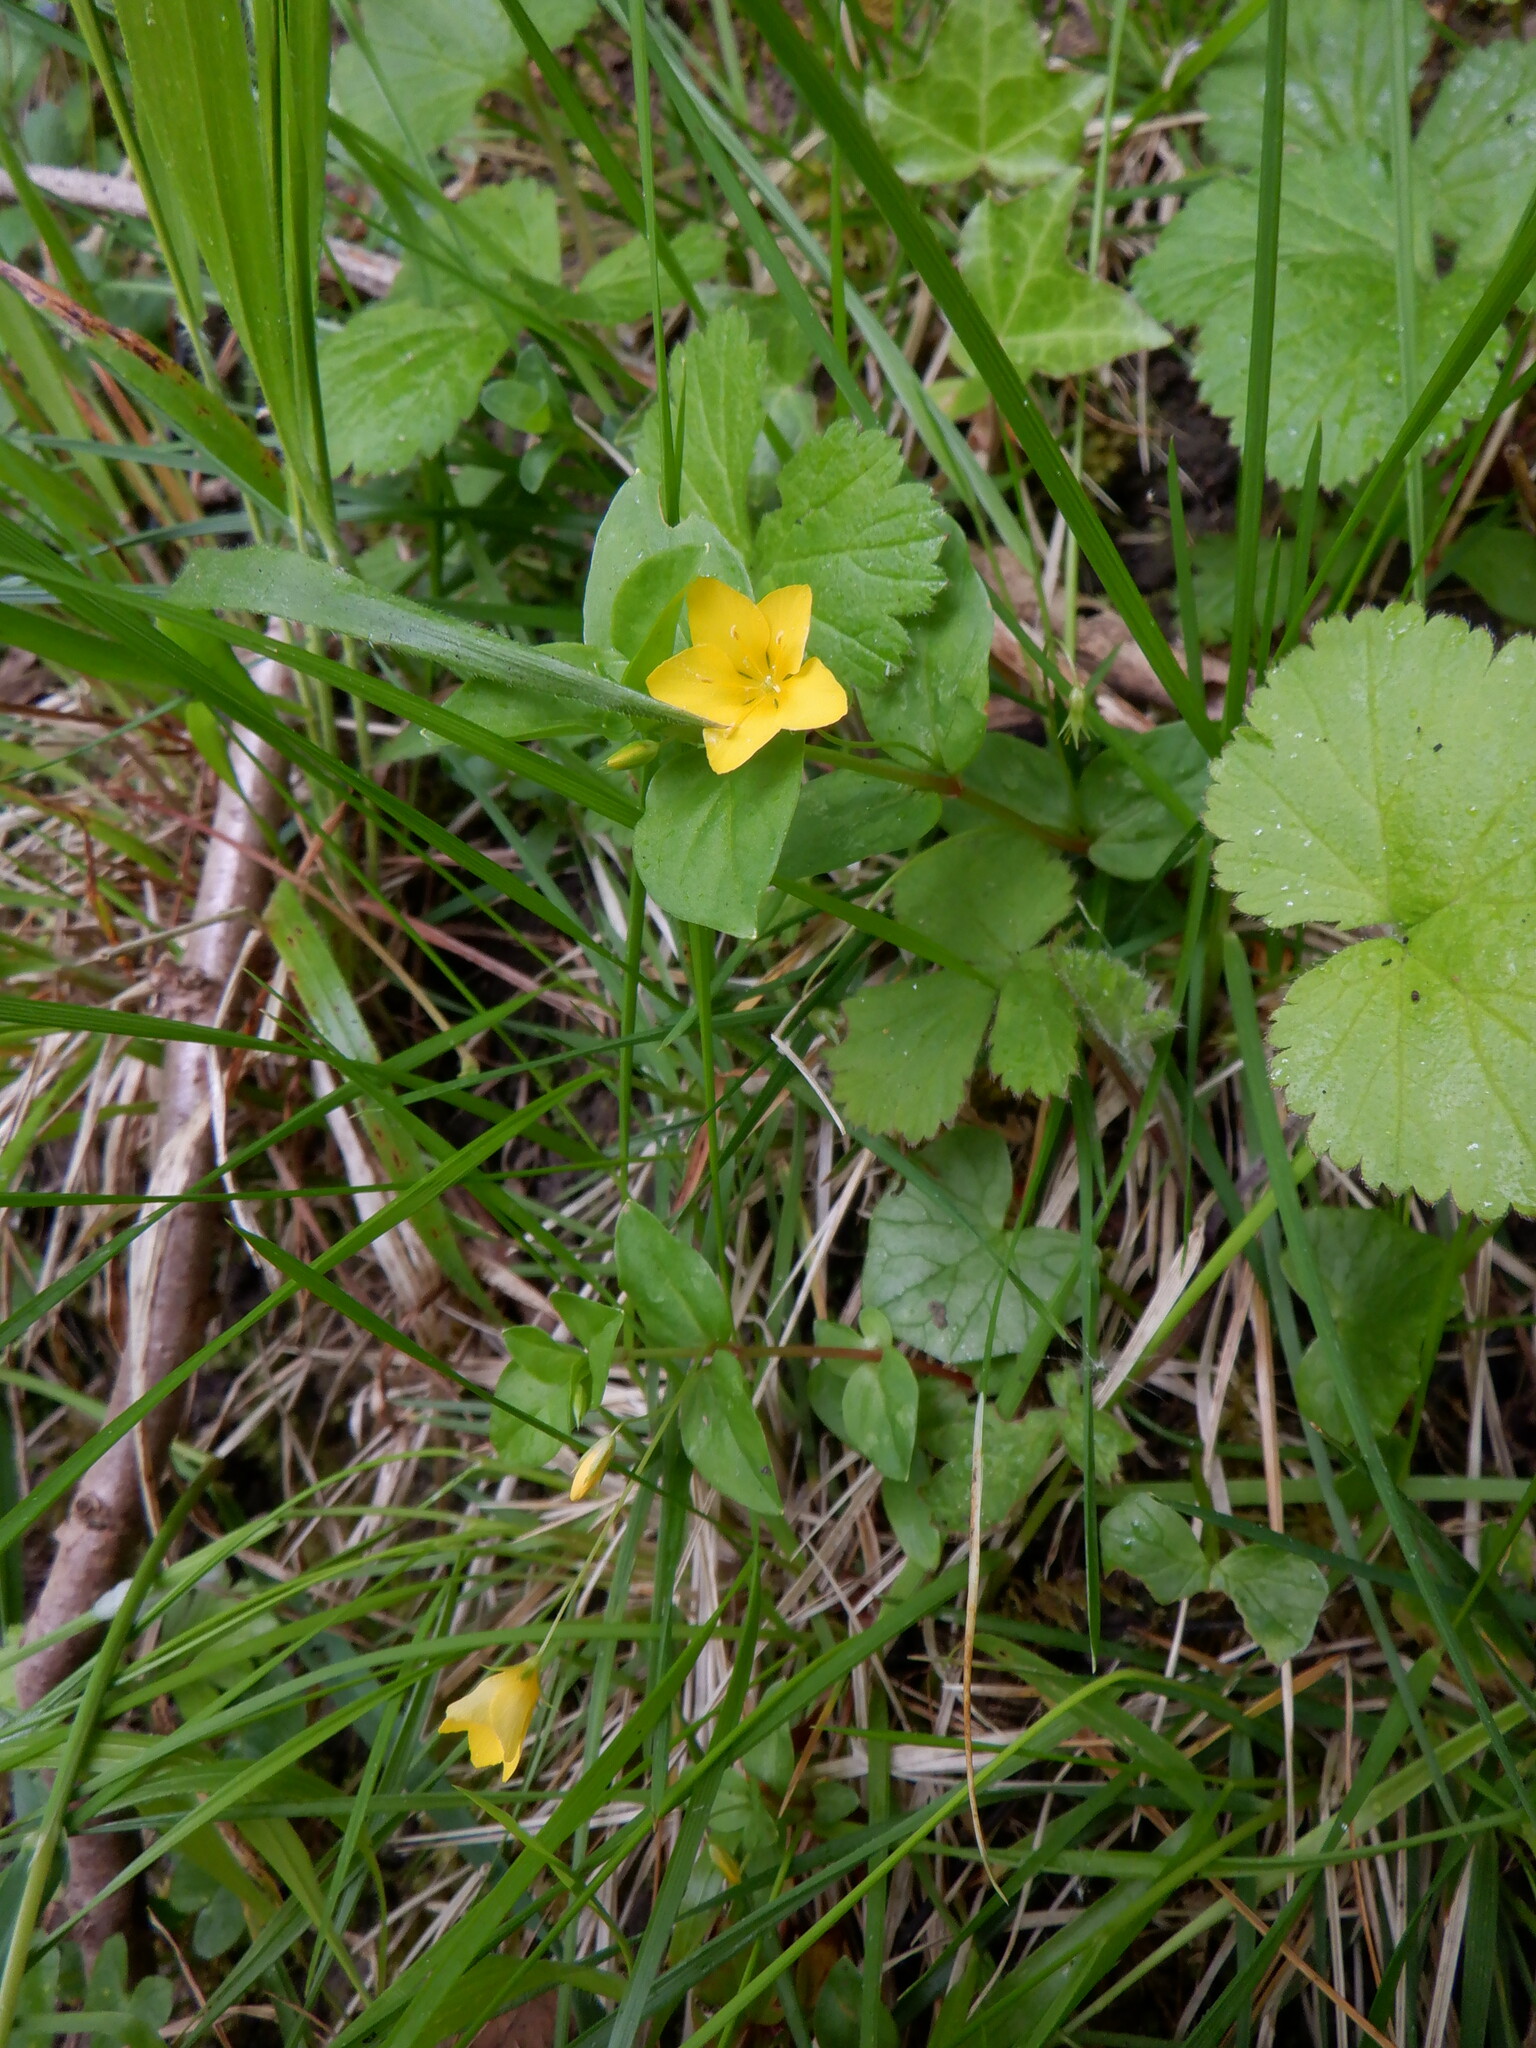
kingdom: Plantae
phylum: Tracheophyta
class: Magnoliopsida
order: Ericales
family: Primulaceae
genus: Lysimachia
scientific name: Lysimachia nemorum
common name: Yellow pimpernel
